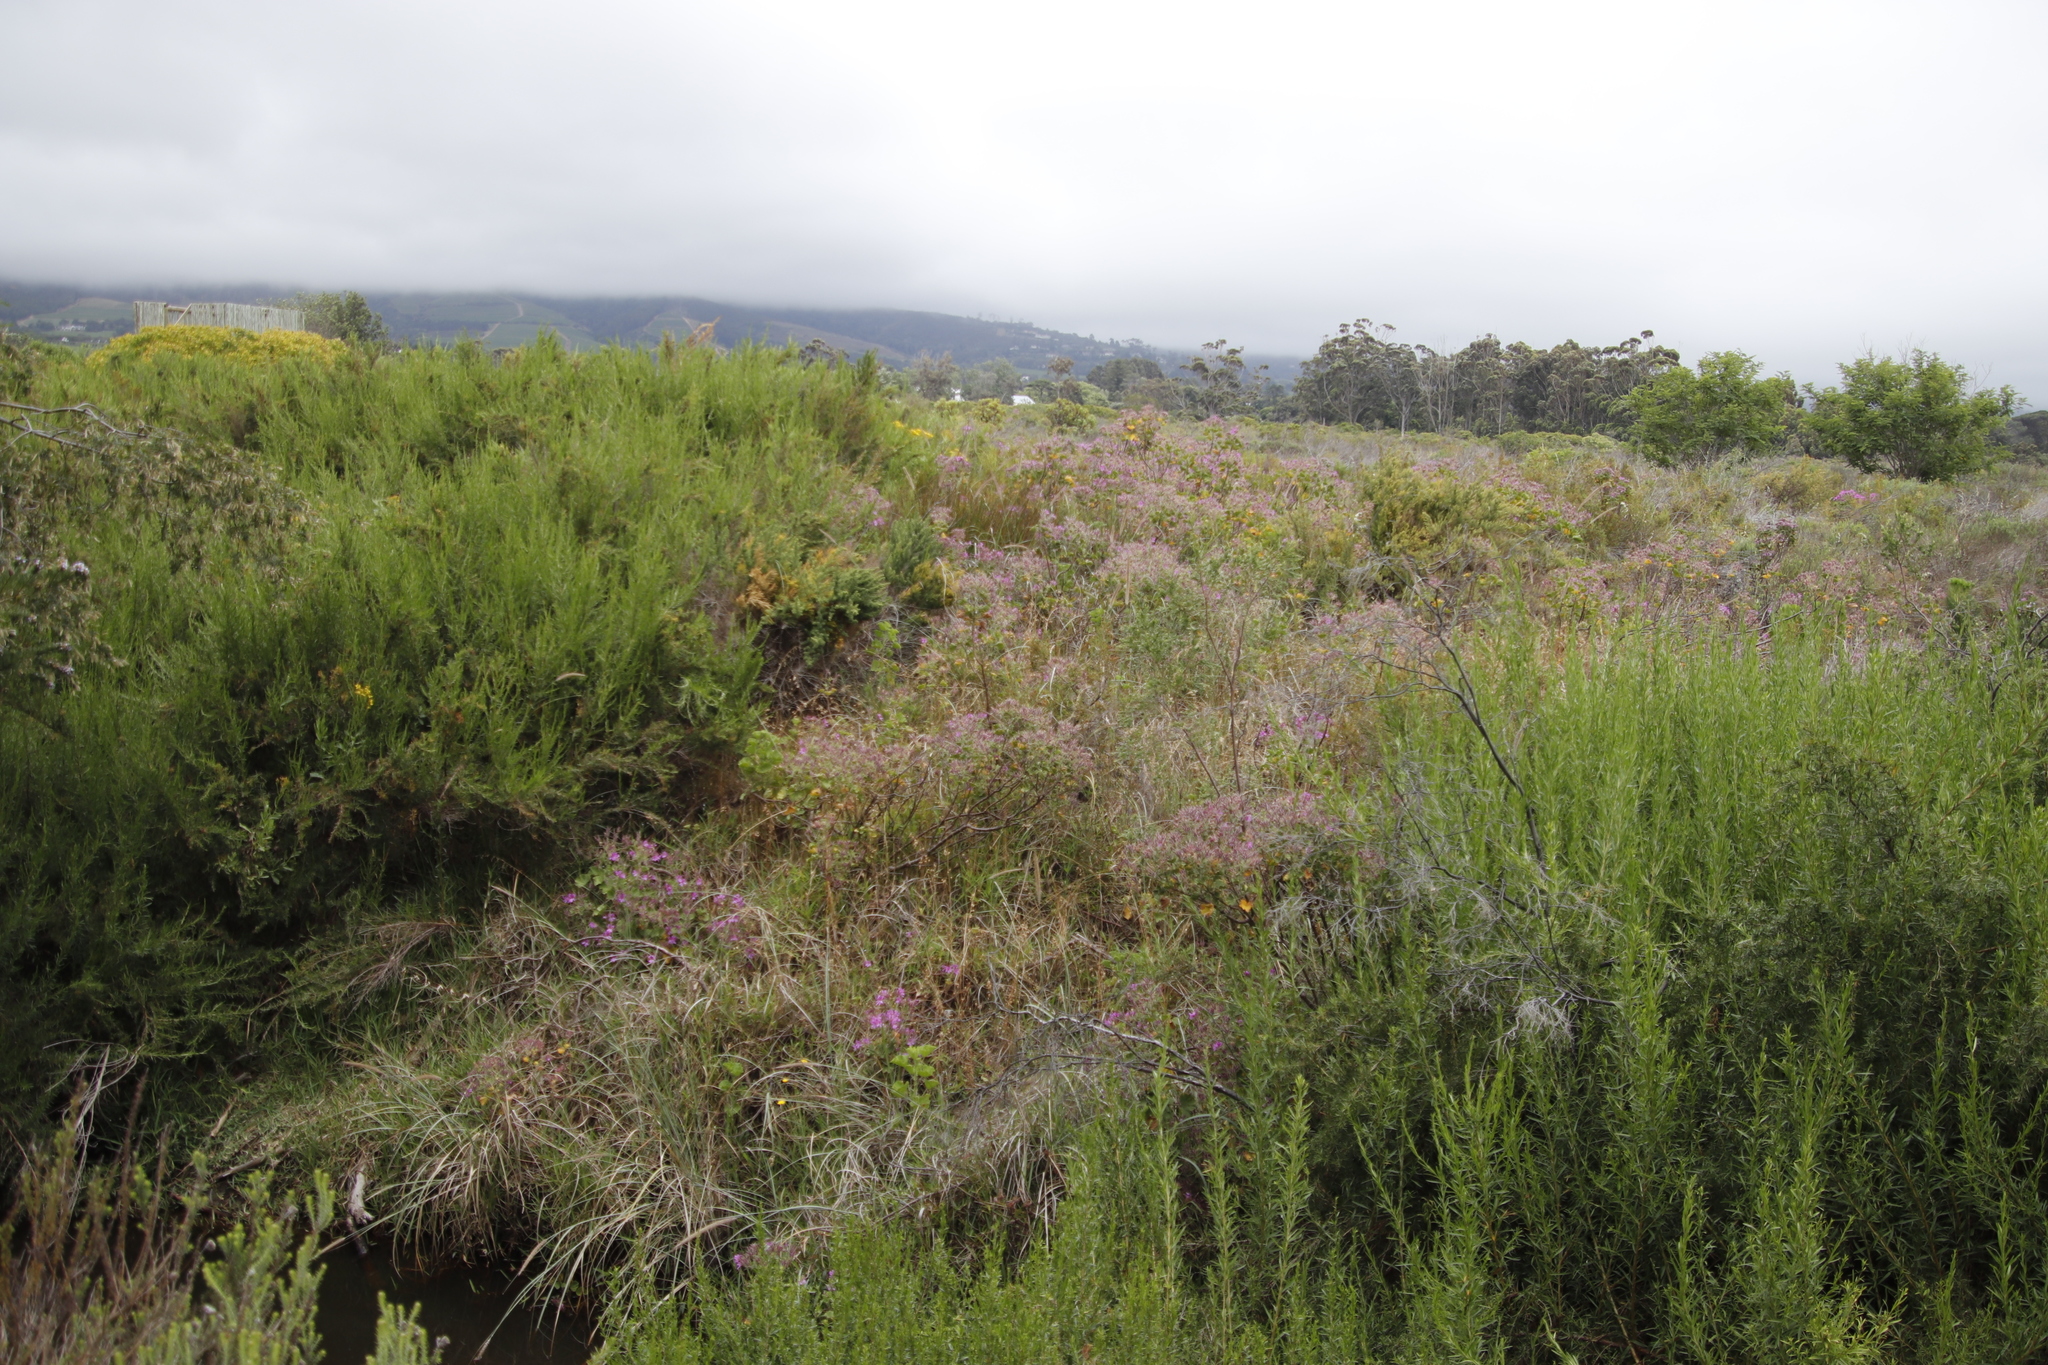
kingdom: Plantae
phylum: Tracheophyta
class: Magnoliopsida
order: Geraniales
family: Geraniaceae
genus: Pelargonium
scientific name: Pelargonium cucullatum
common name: Tree pelargonium
